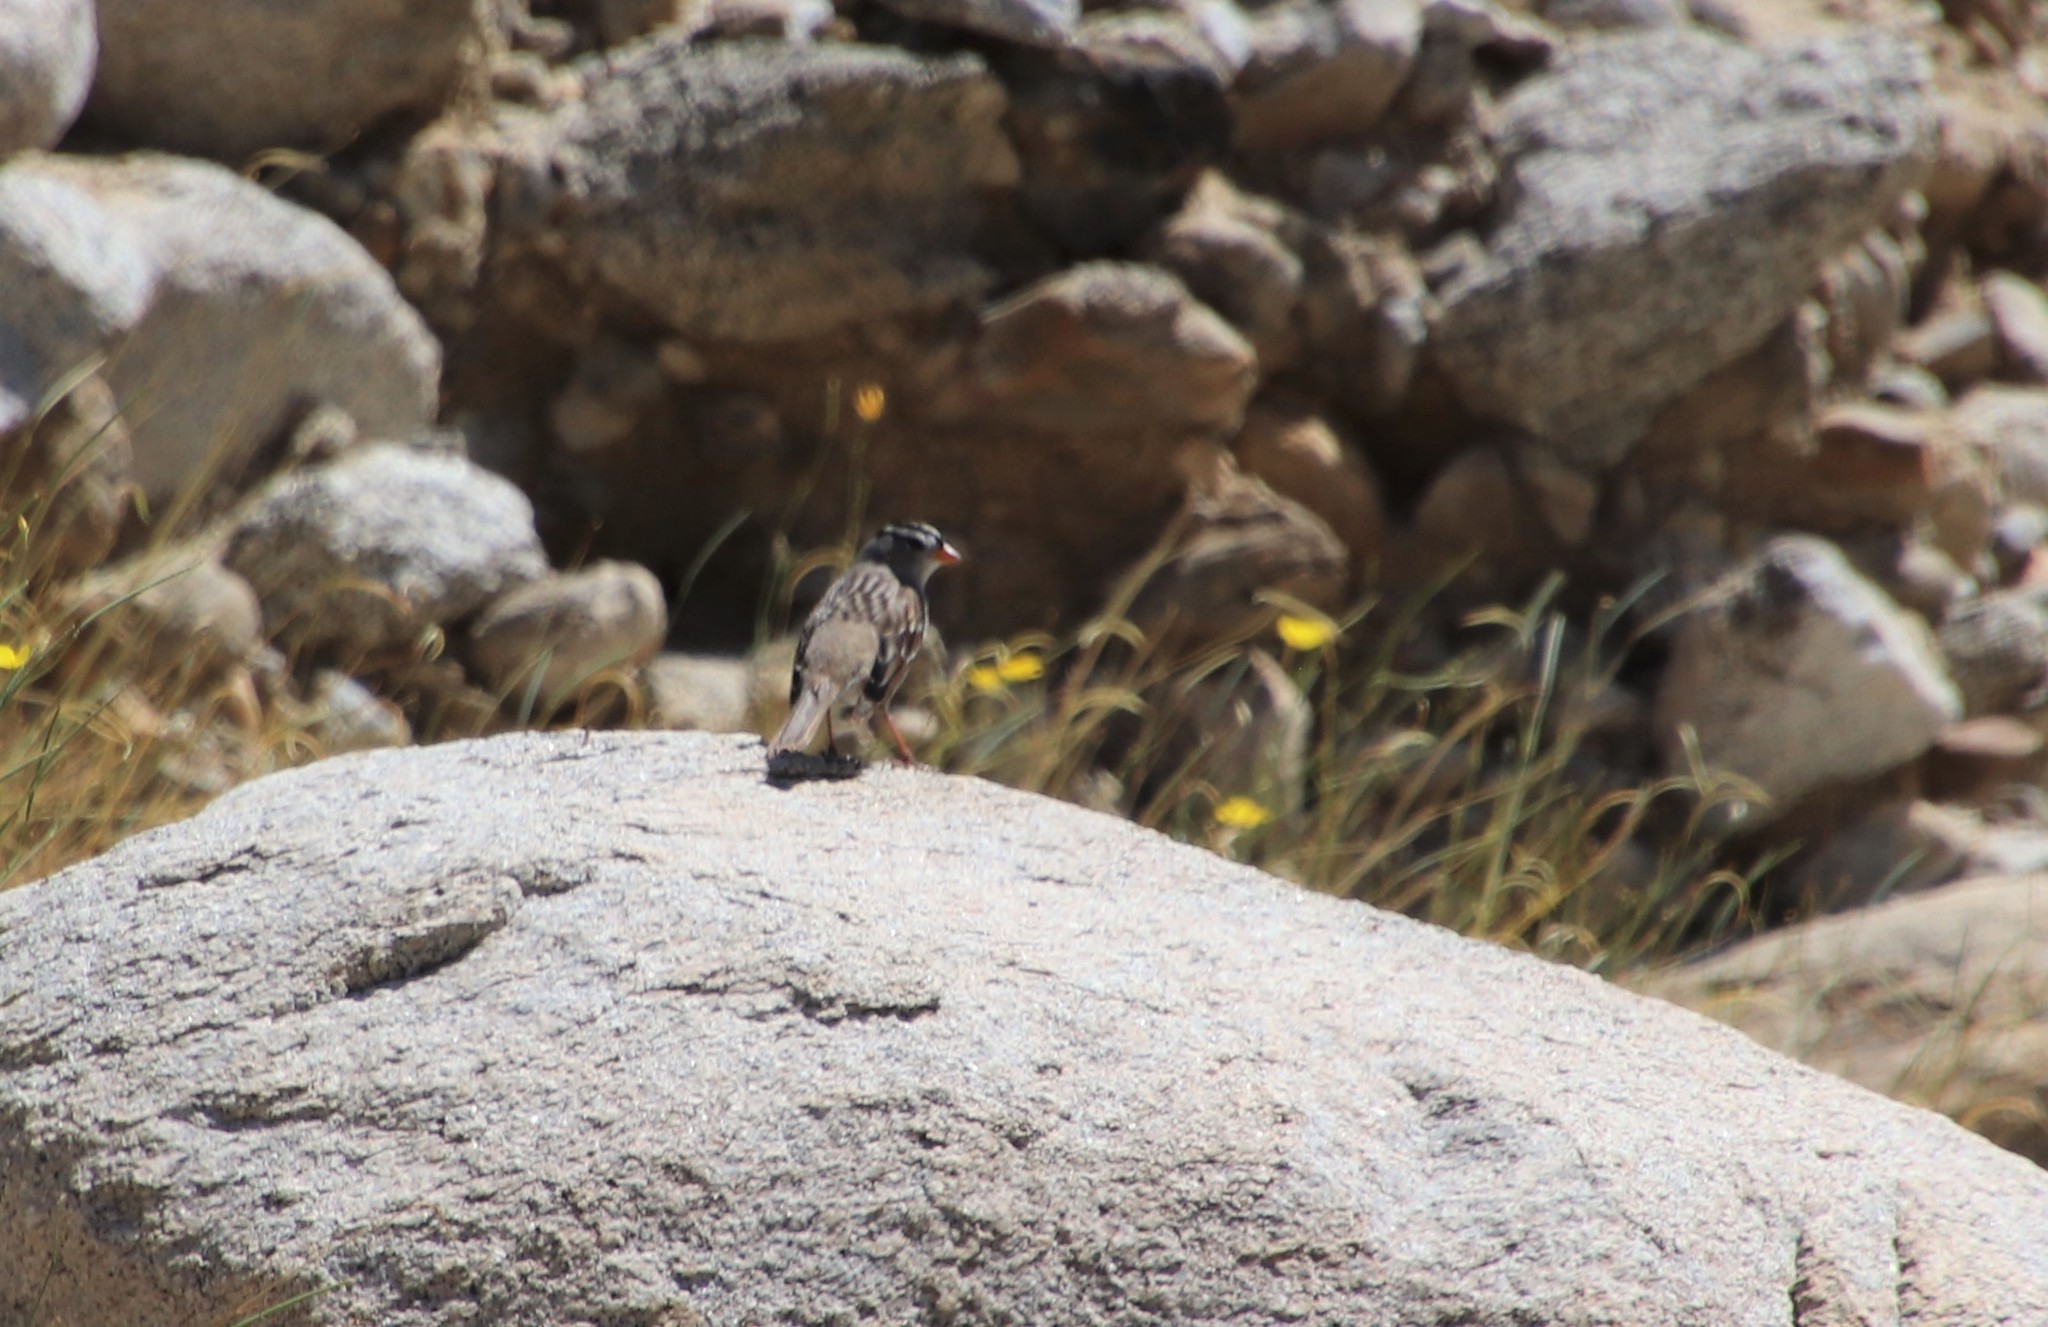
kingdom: Animalia
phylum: Chordata
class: Aves
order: Passeriformes
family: Passerellidae
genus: Zonotrichia
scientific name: Zonotrichia leucophrys
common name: White-crowned sparrow
